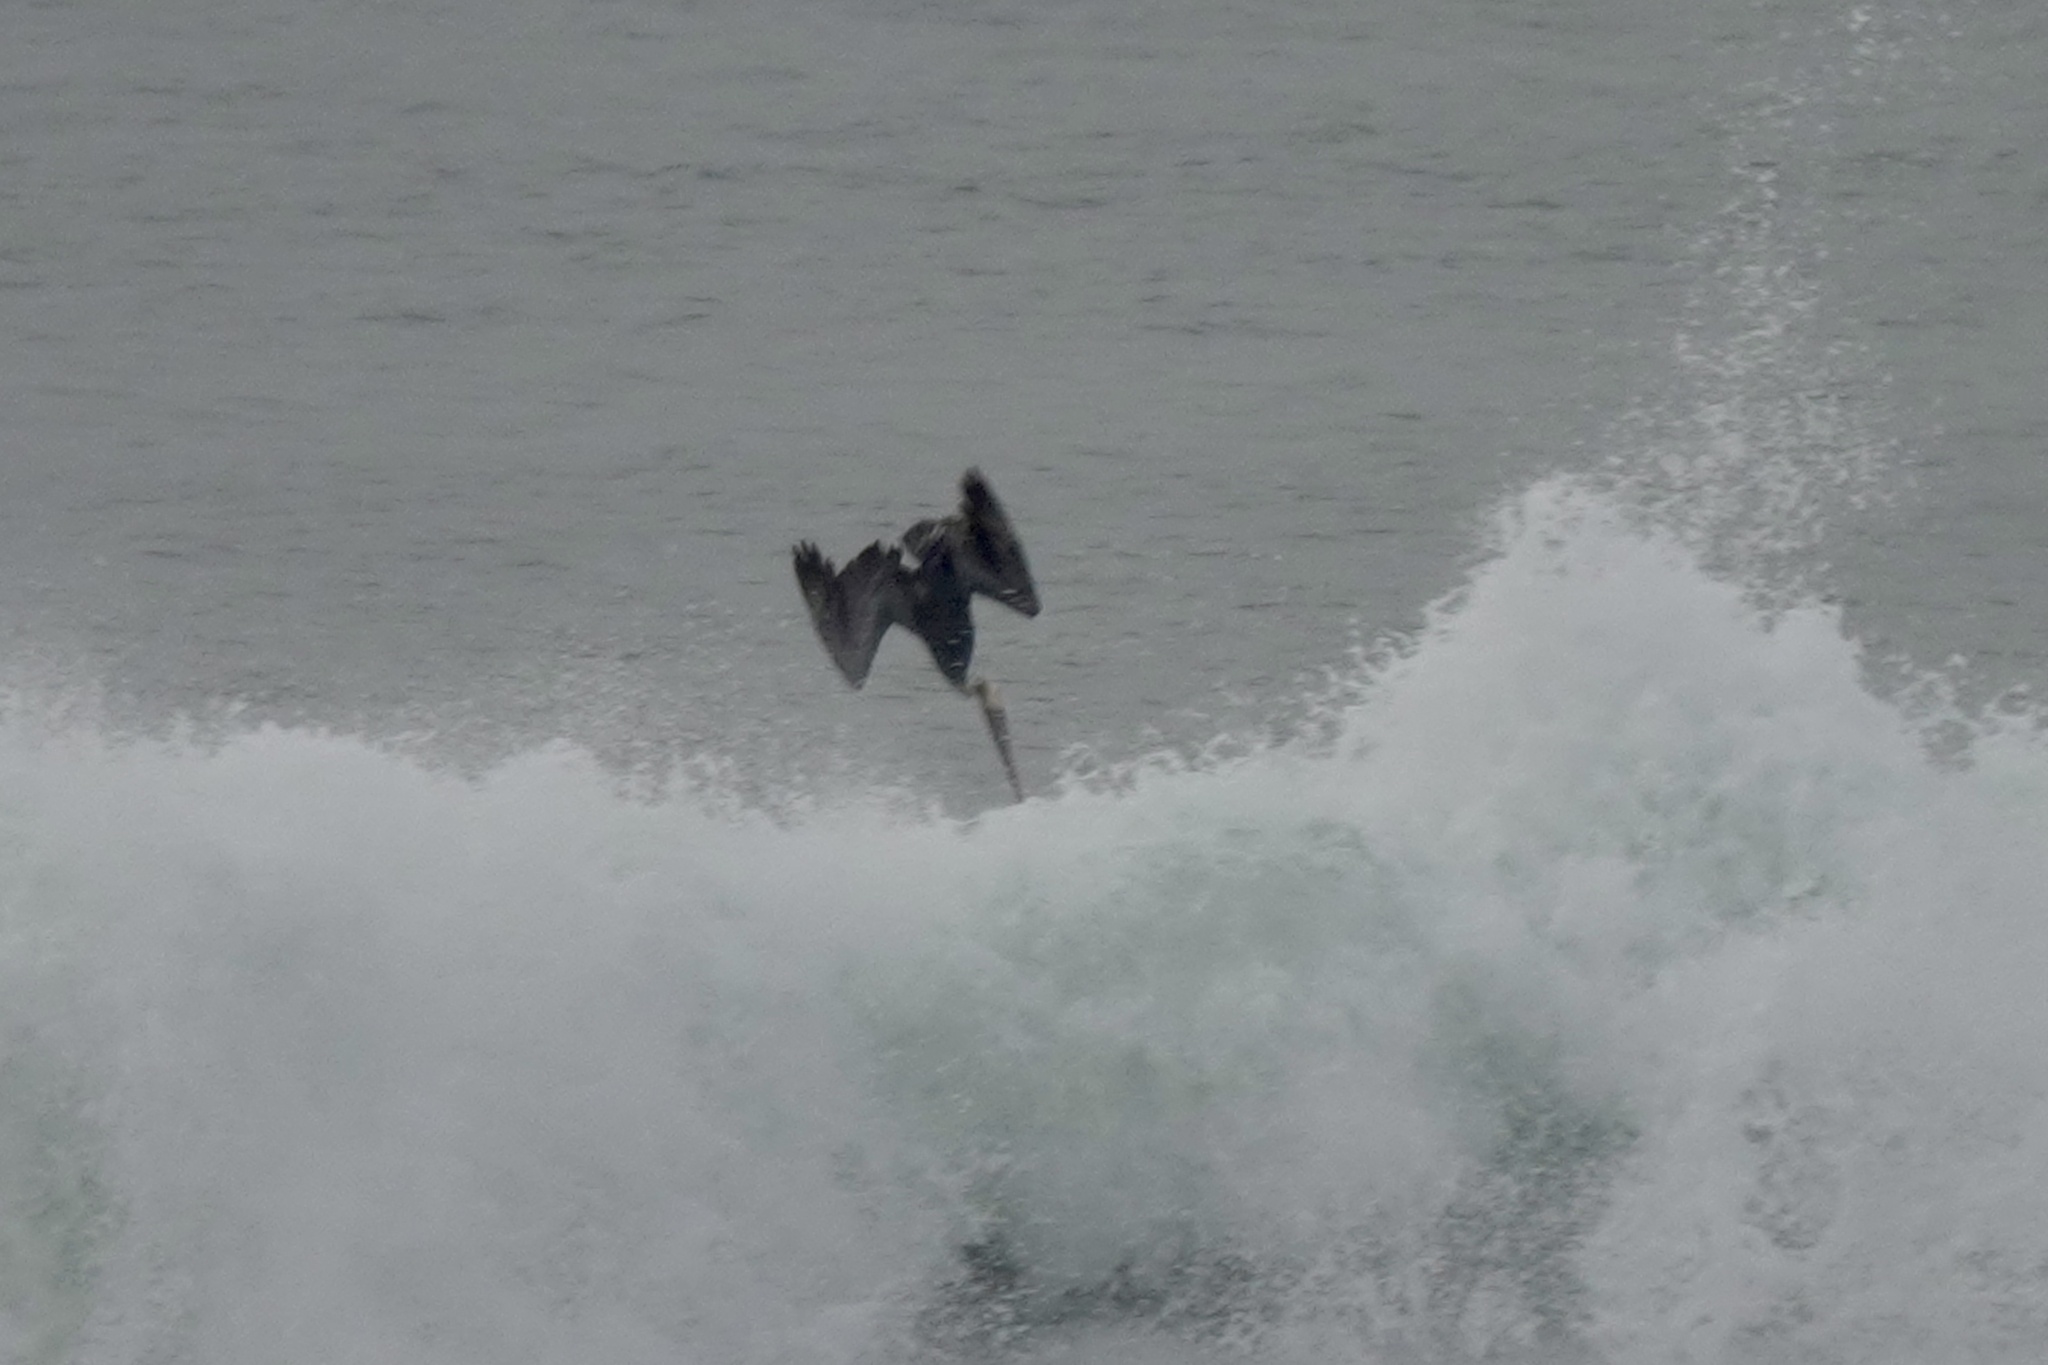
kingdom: Animalia
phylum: Chordata
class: Aves
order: Pelecaniformes
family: Pelecanidae
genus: Pelecanus
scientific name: Pelecanus occidentalis
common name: Brown pelican
